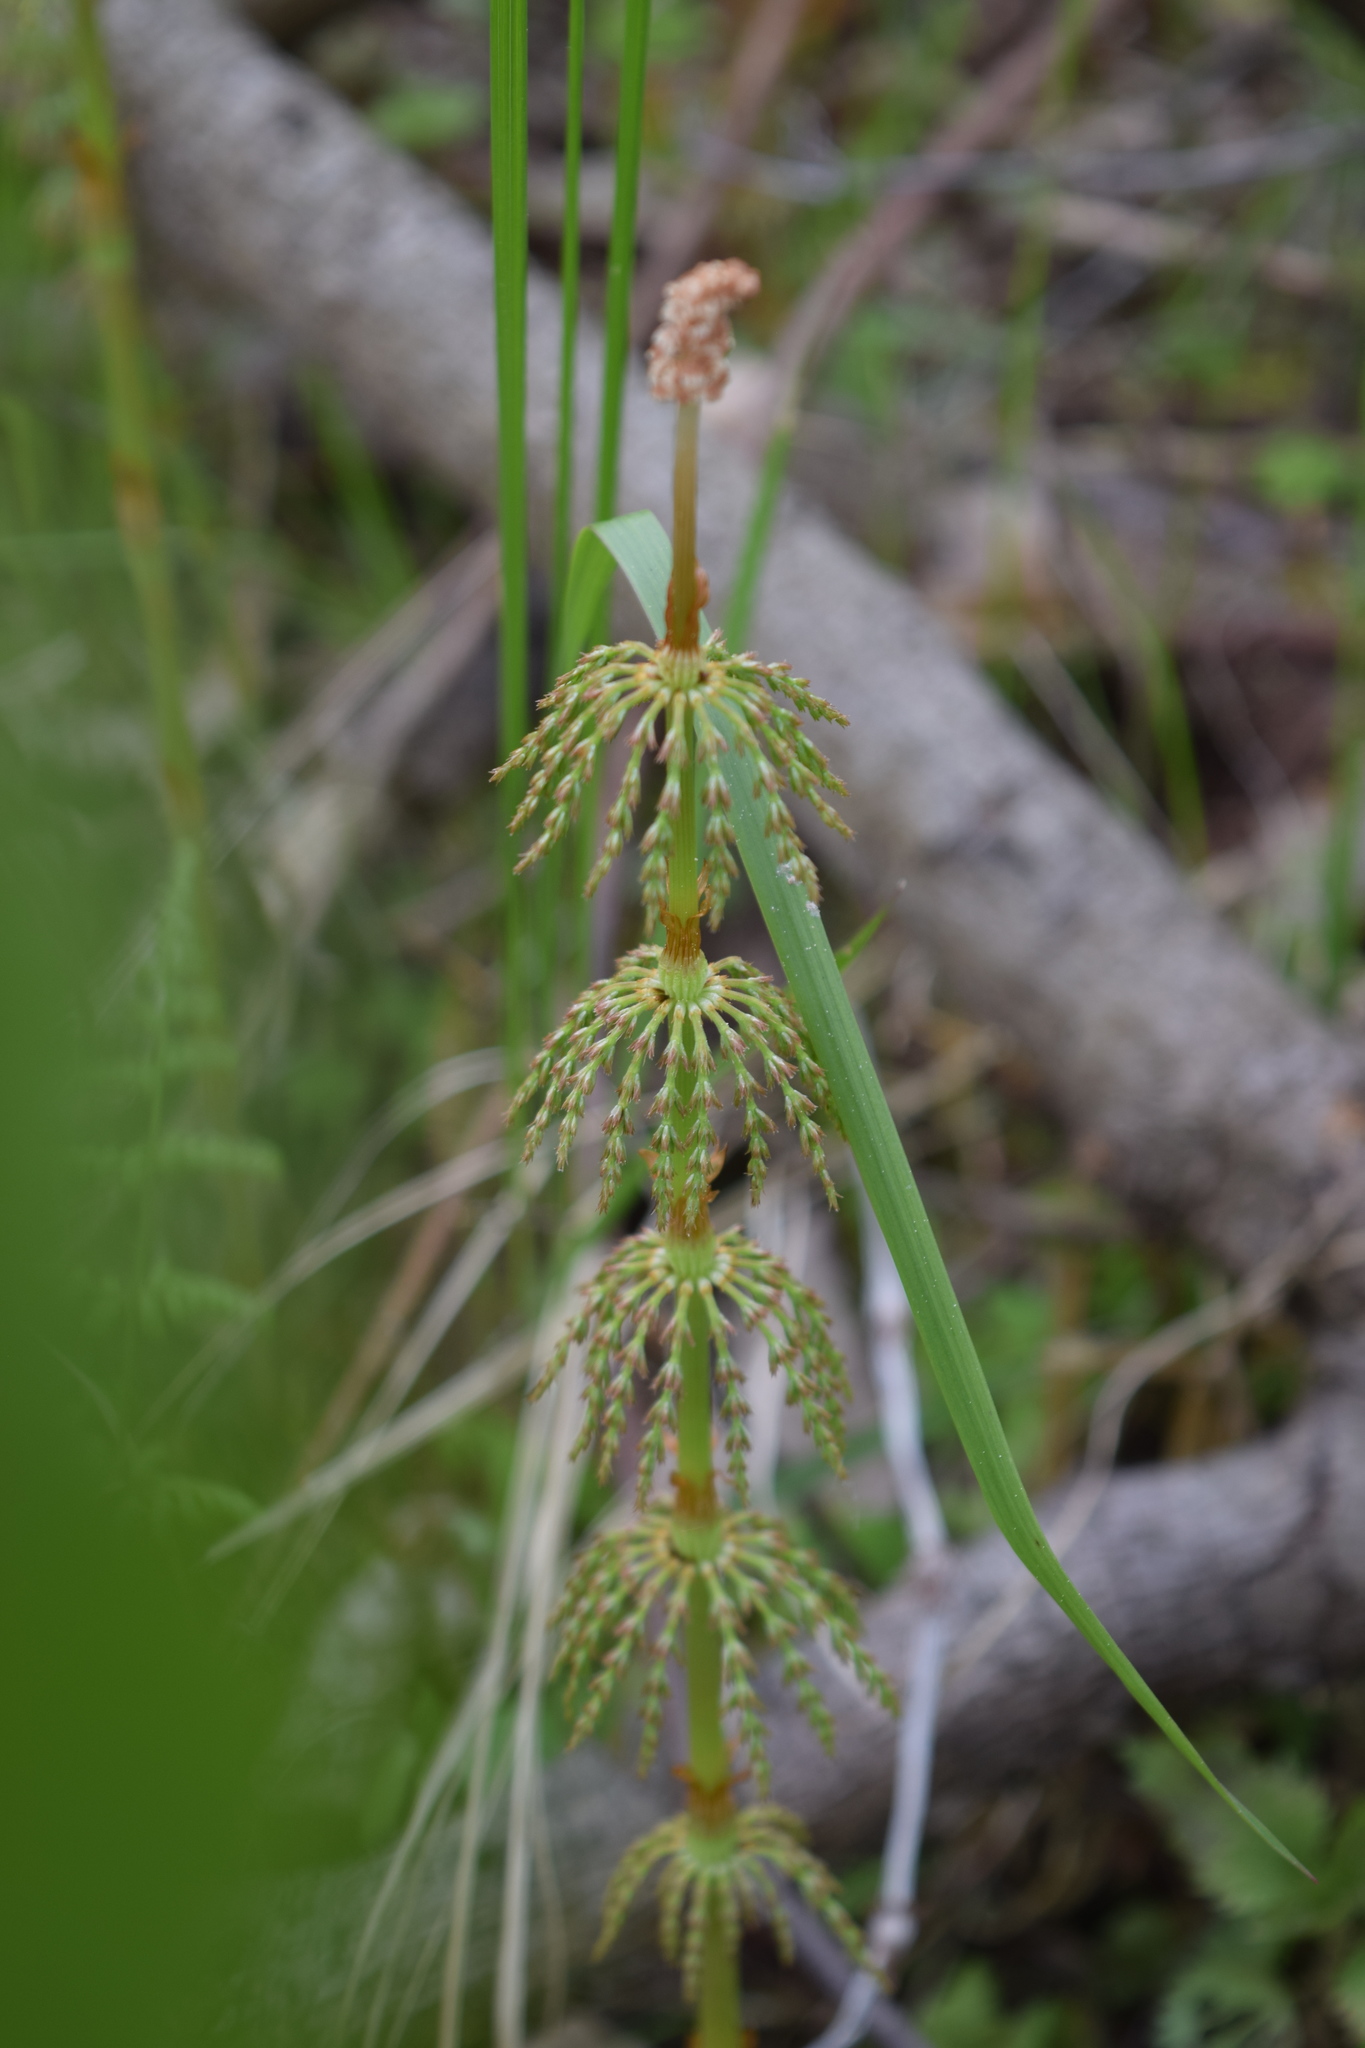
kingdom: Plantae
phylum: Tracheophyta
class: Polypodiopsida
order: Equisetales
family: Equisetaceae
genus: Equisetum
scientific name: Equisetum sylvaticum
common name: Wood horsetail
